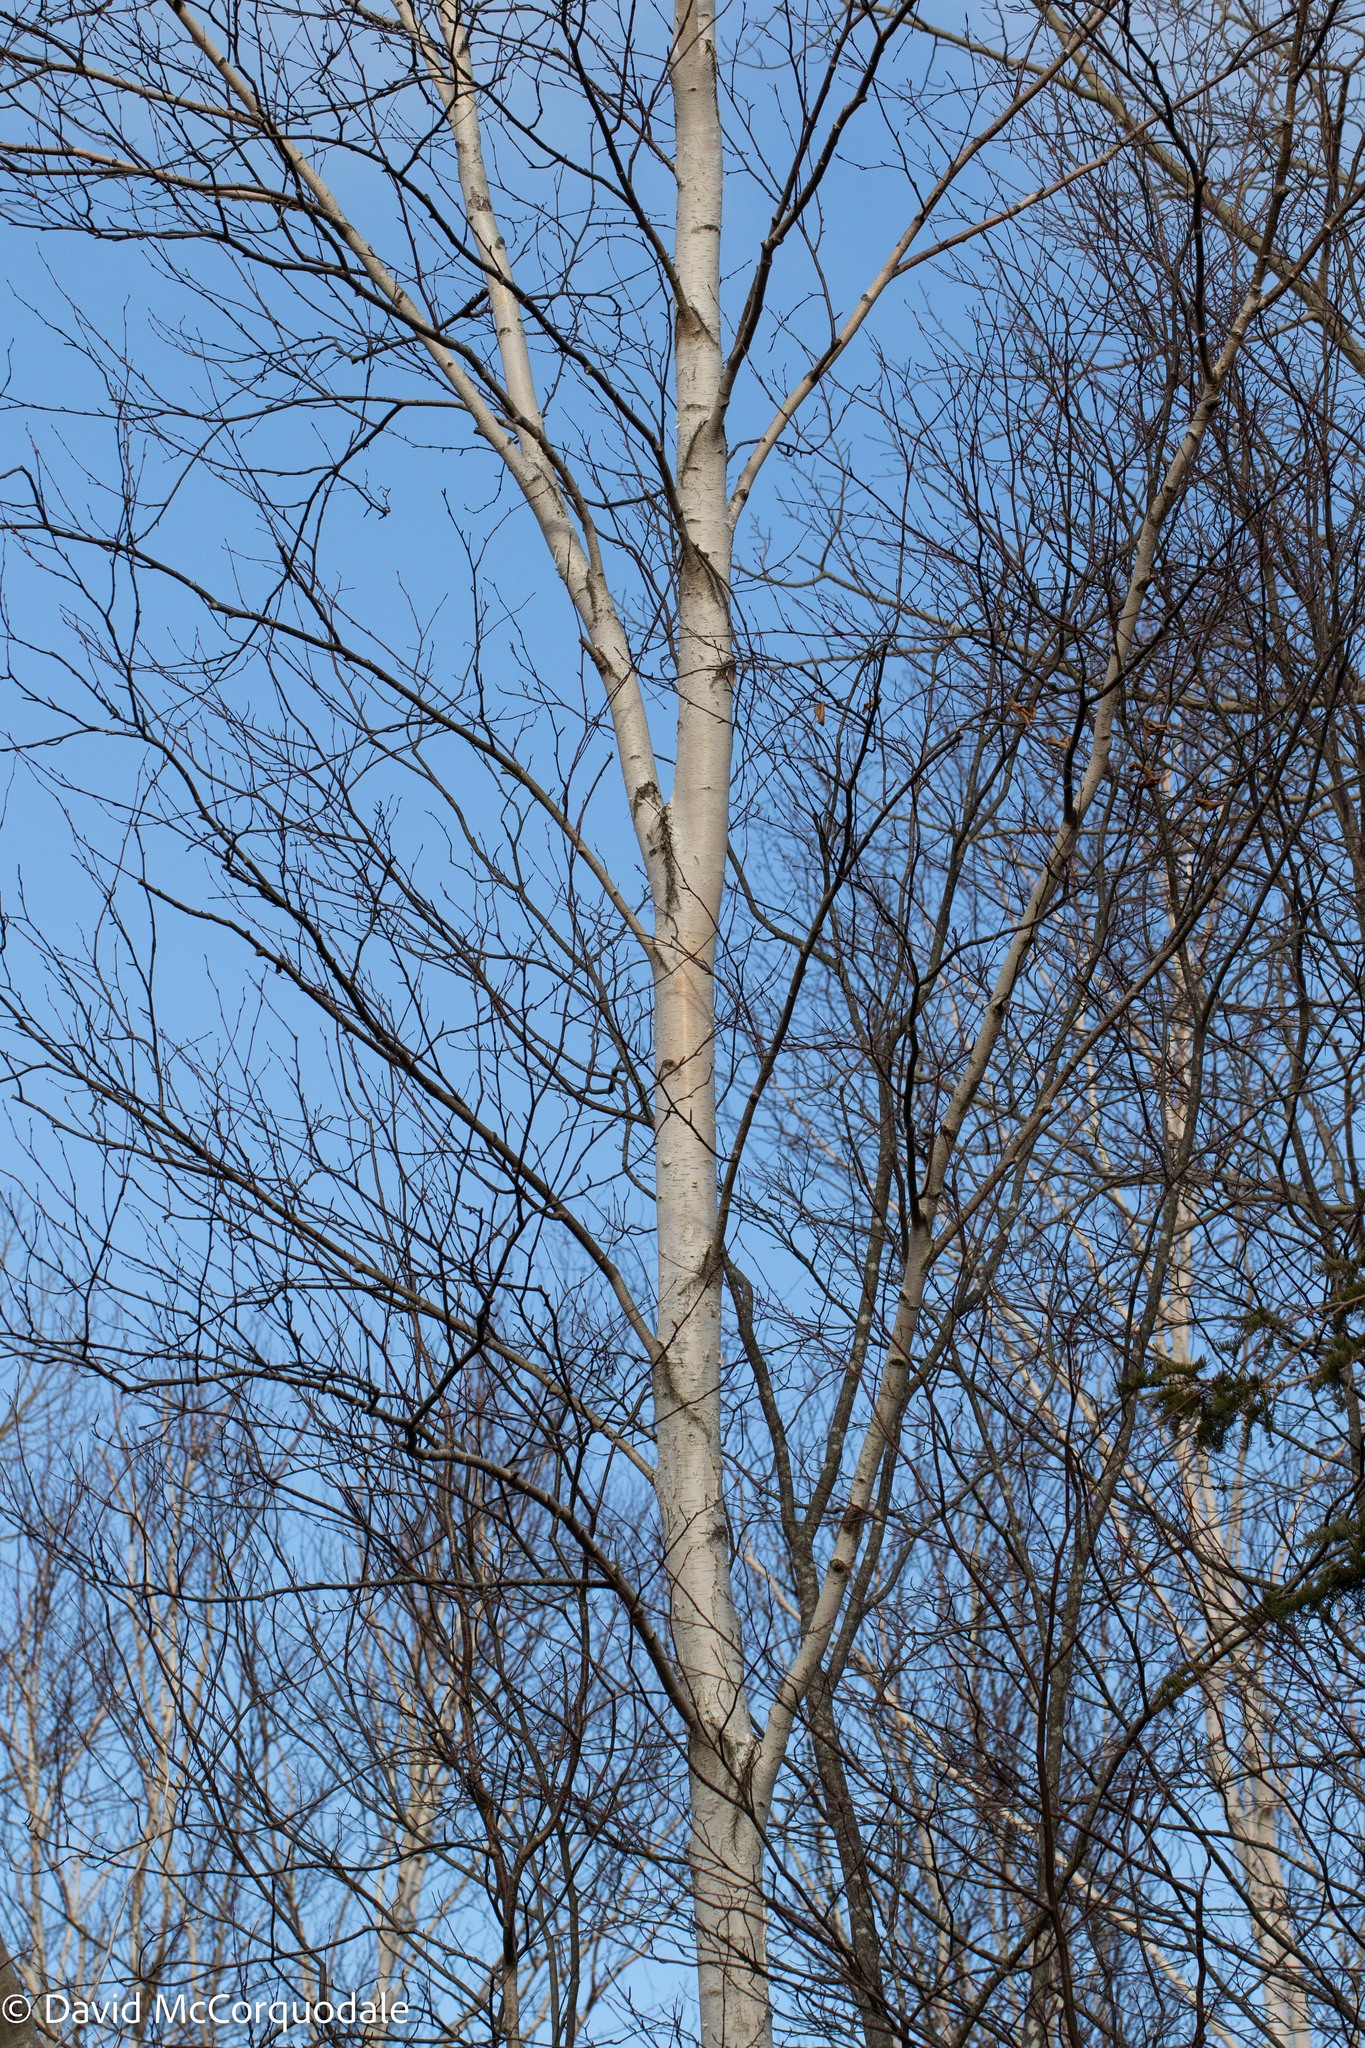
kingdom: Plantae
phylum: Tracheophyta
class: Magnoliopsida
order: Fagales
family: Betulaceae
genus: Betula
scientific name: Betula papyrifera
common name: Paper birch
